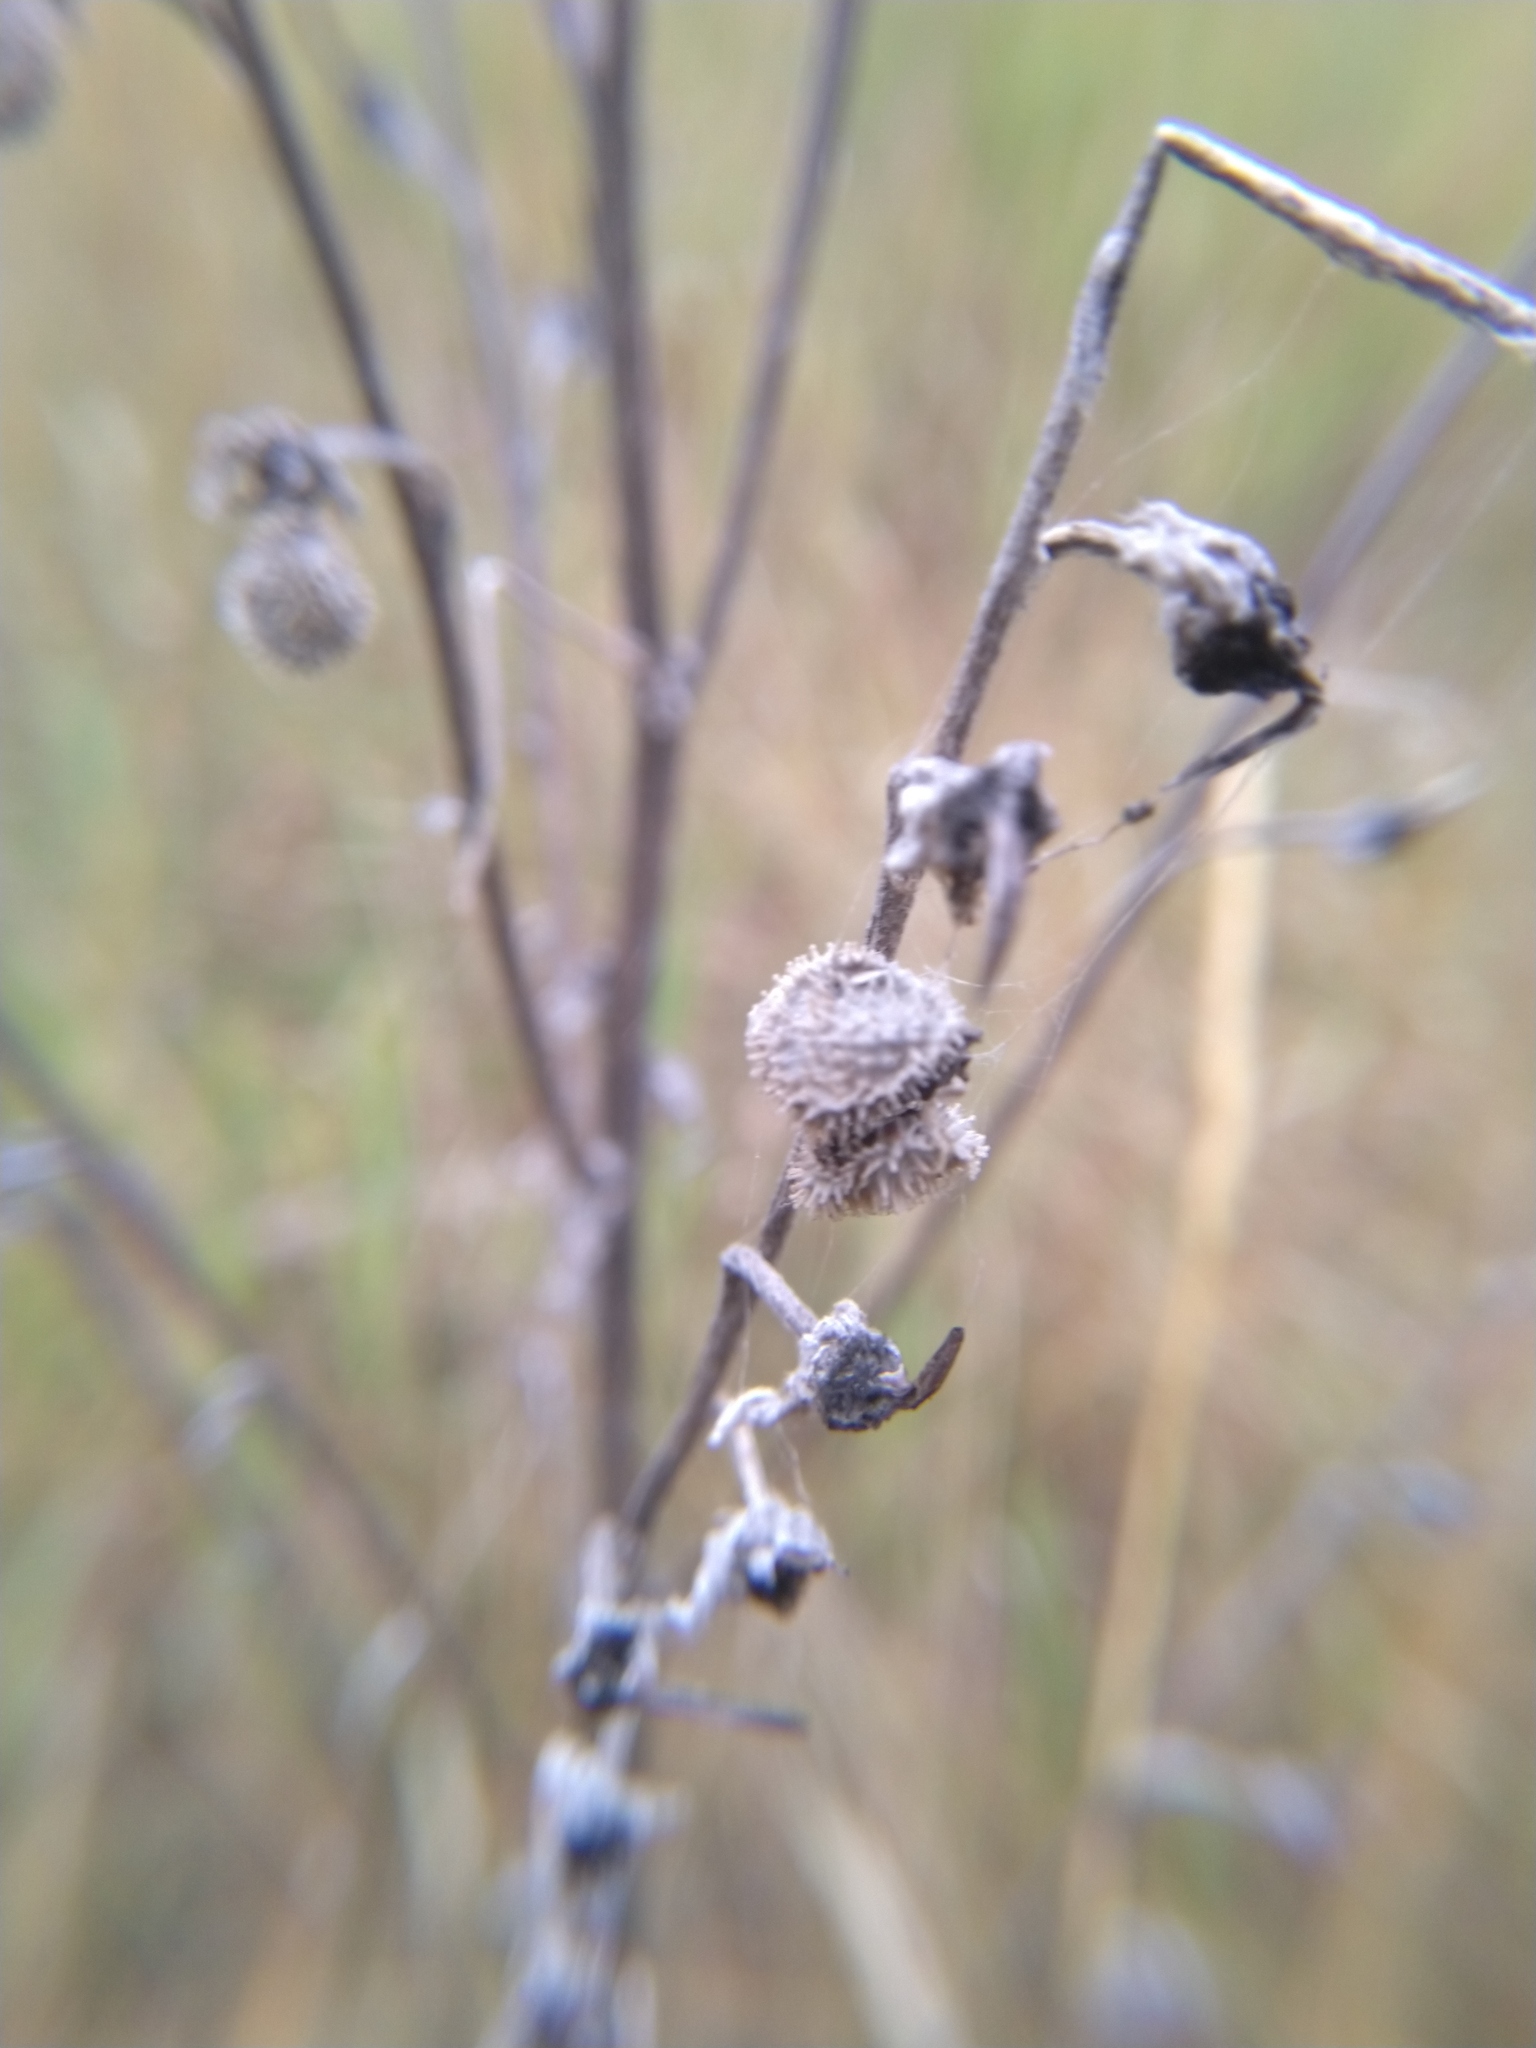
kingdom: Plantae
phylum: Tracheophyta
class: Magnoliopsida
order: Boraginales
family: Boraginaceae
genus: Cynoglossum
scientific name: Cynoglossum officinale
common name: Hound's-tongue
